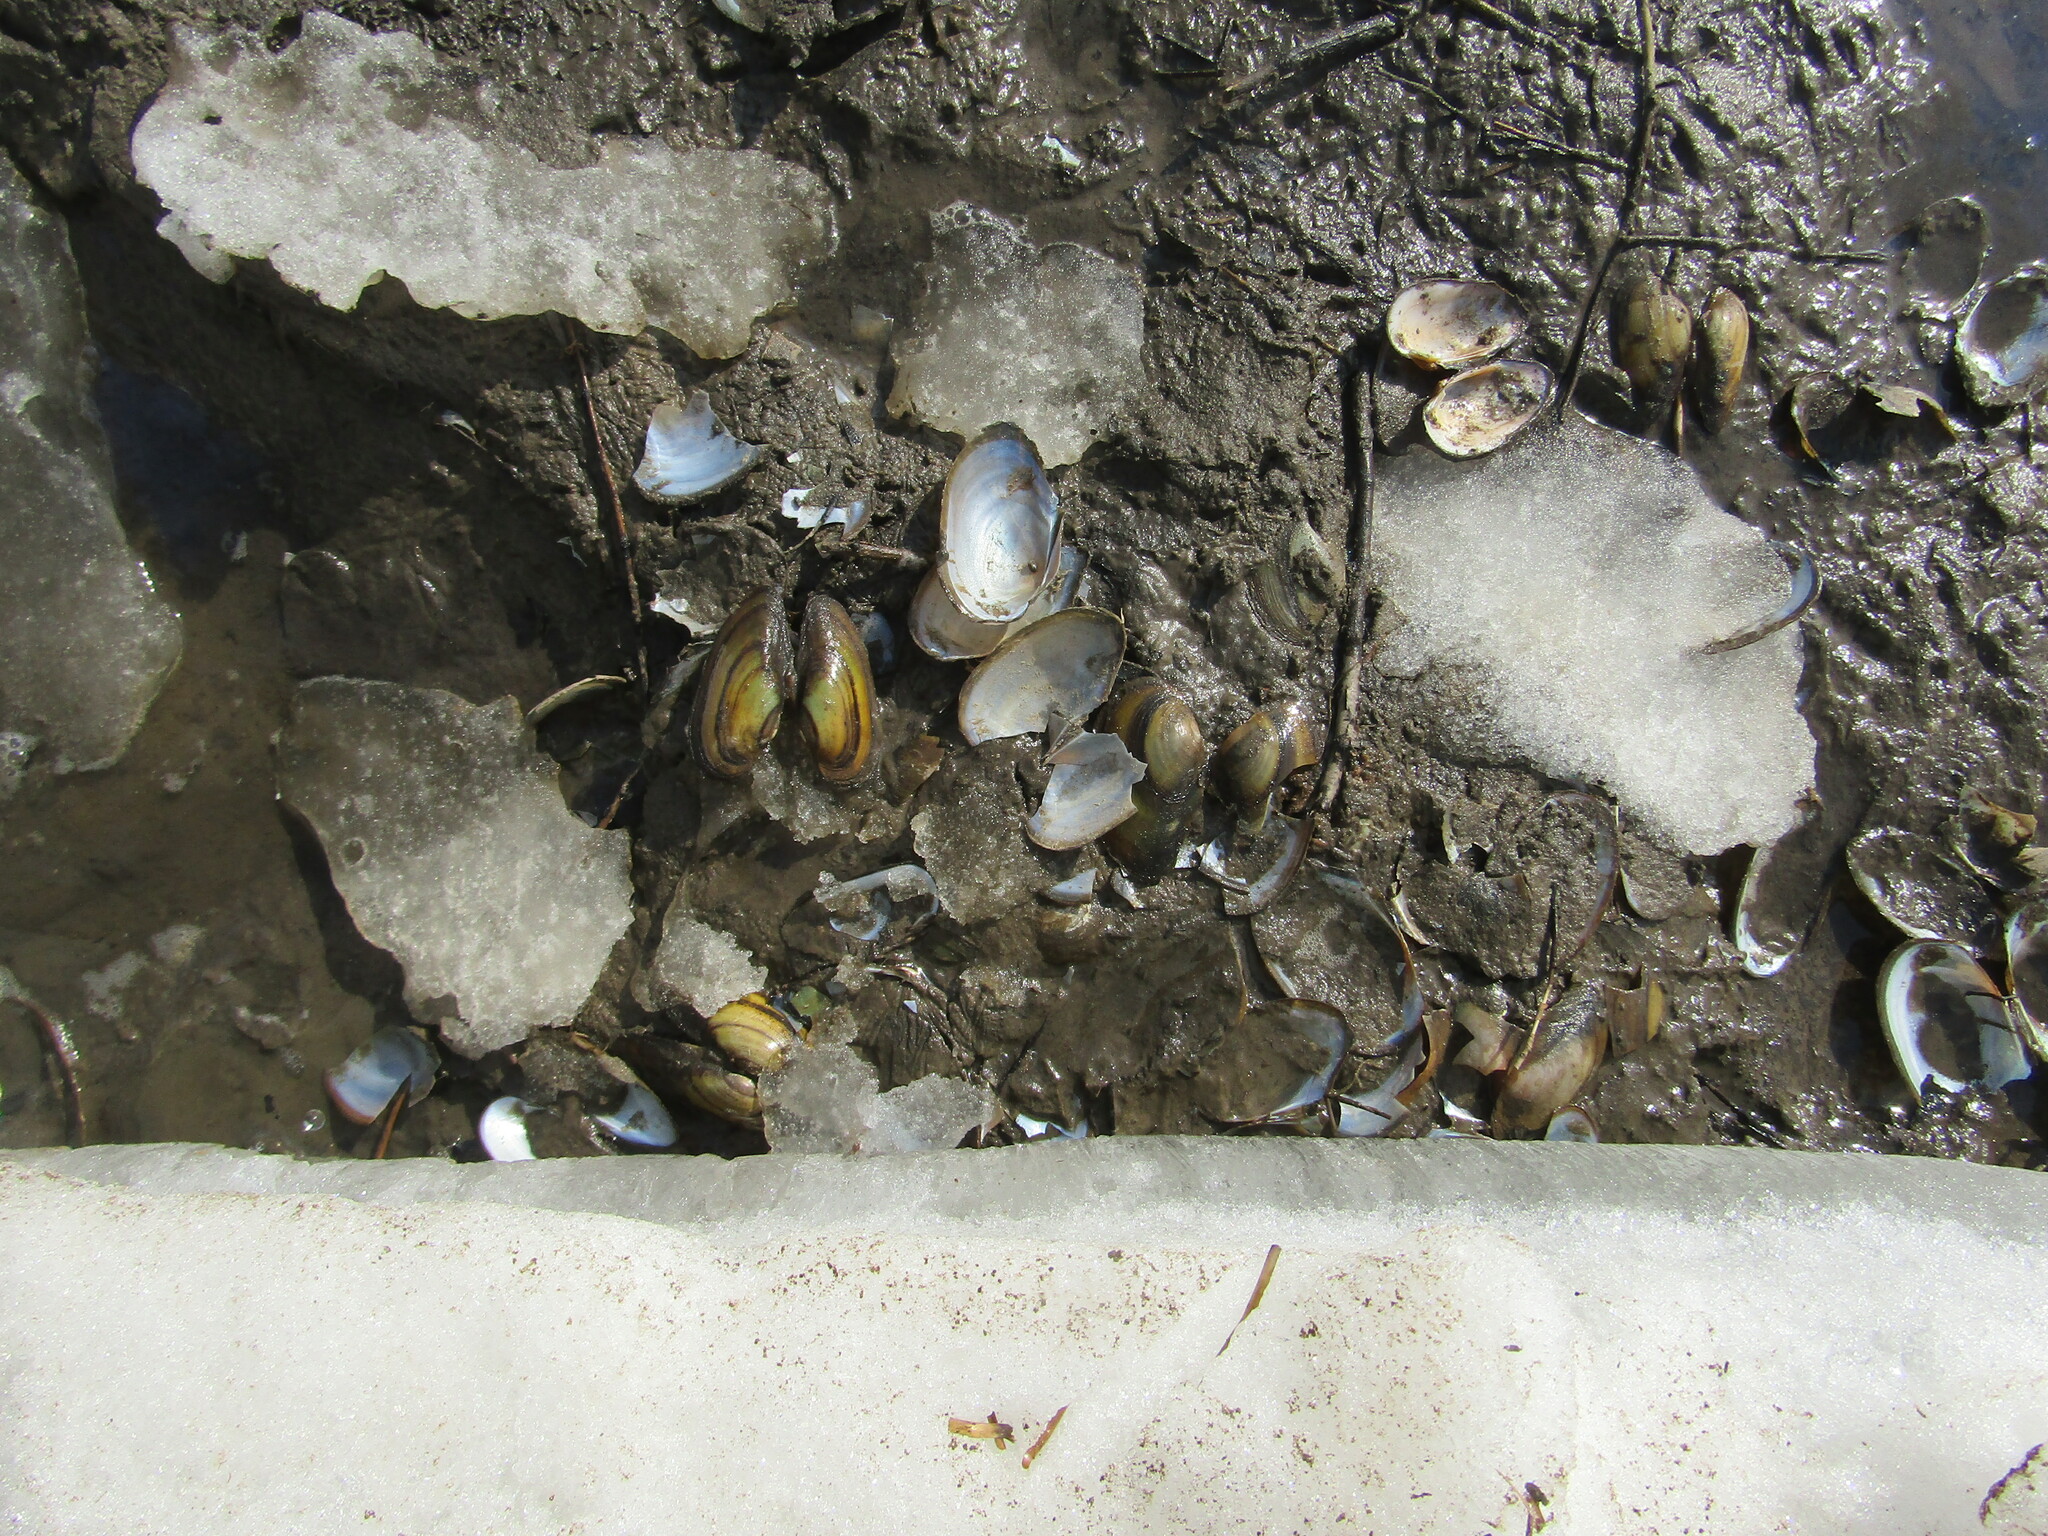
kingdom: Animalia
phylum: Mollusca
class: Bivalvia
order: Unionida
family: Unionidae
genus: Anodonta
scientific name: Anodonta anatina
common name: Duck mussel
